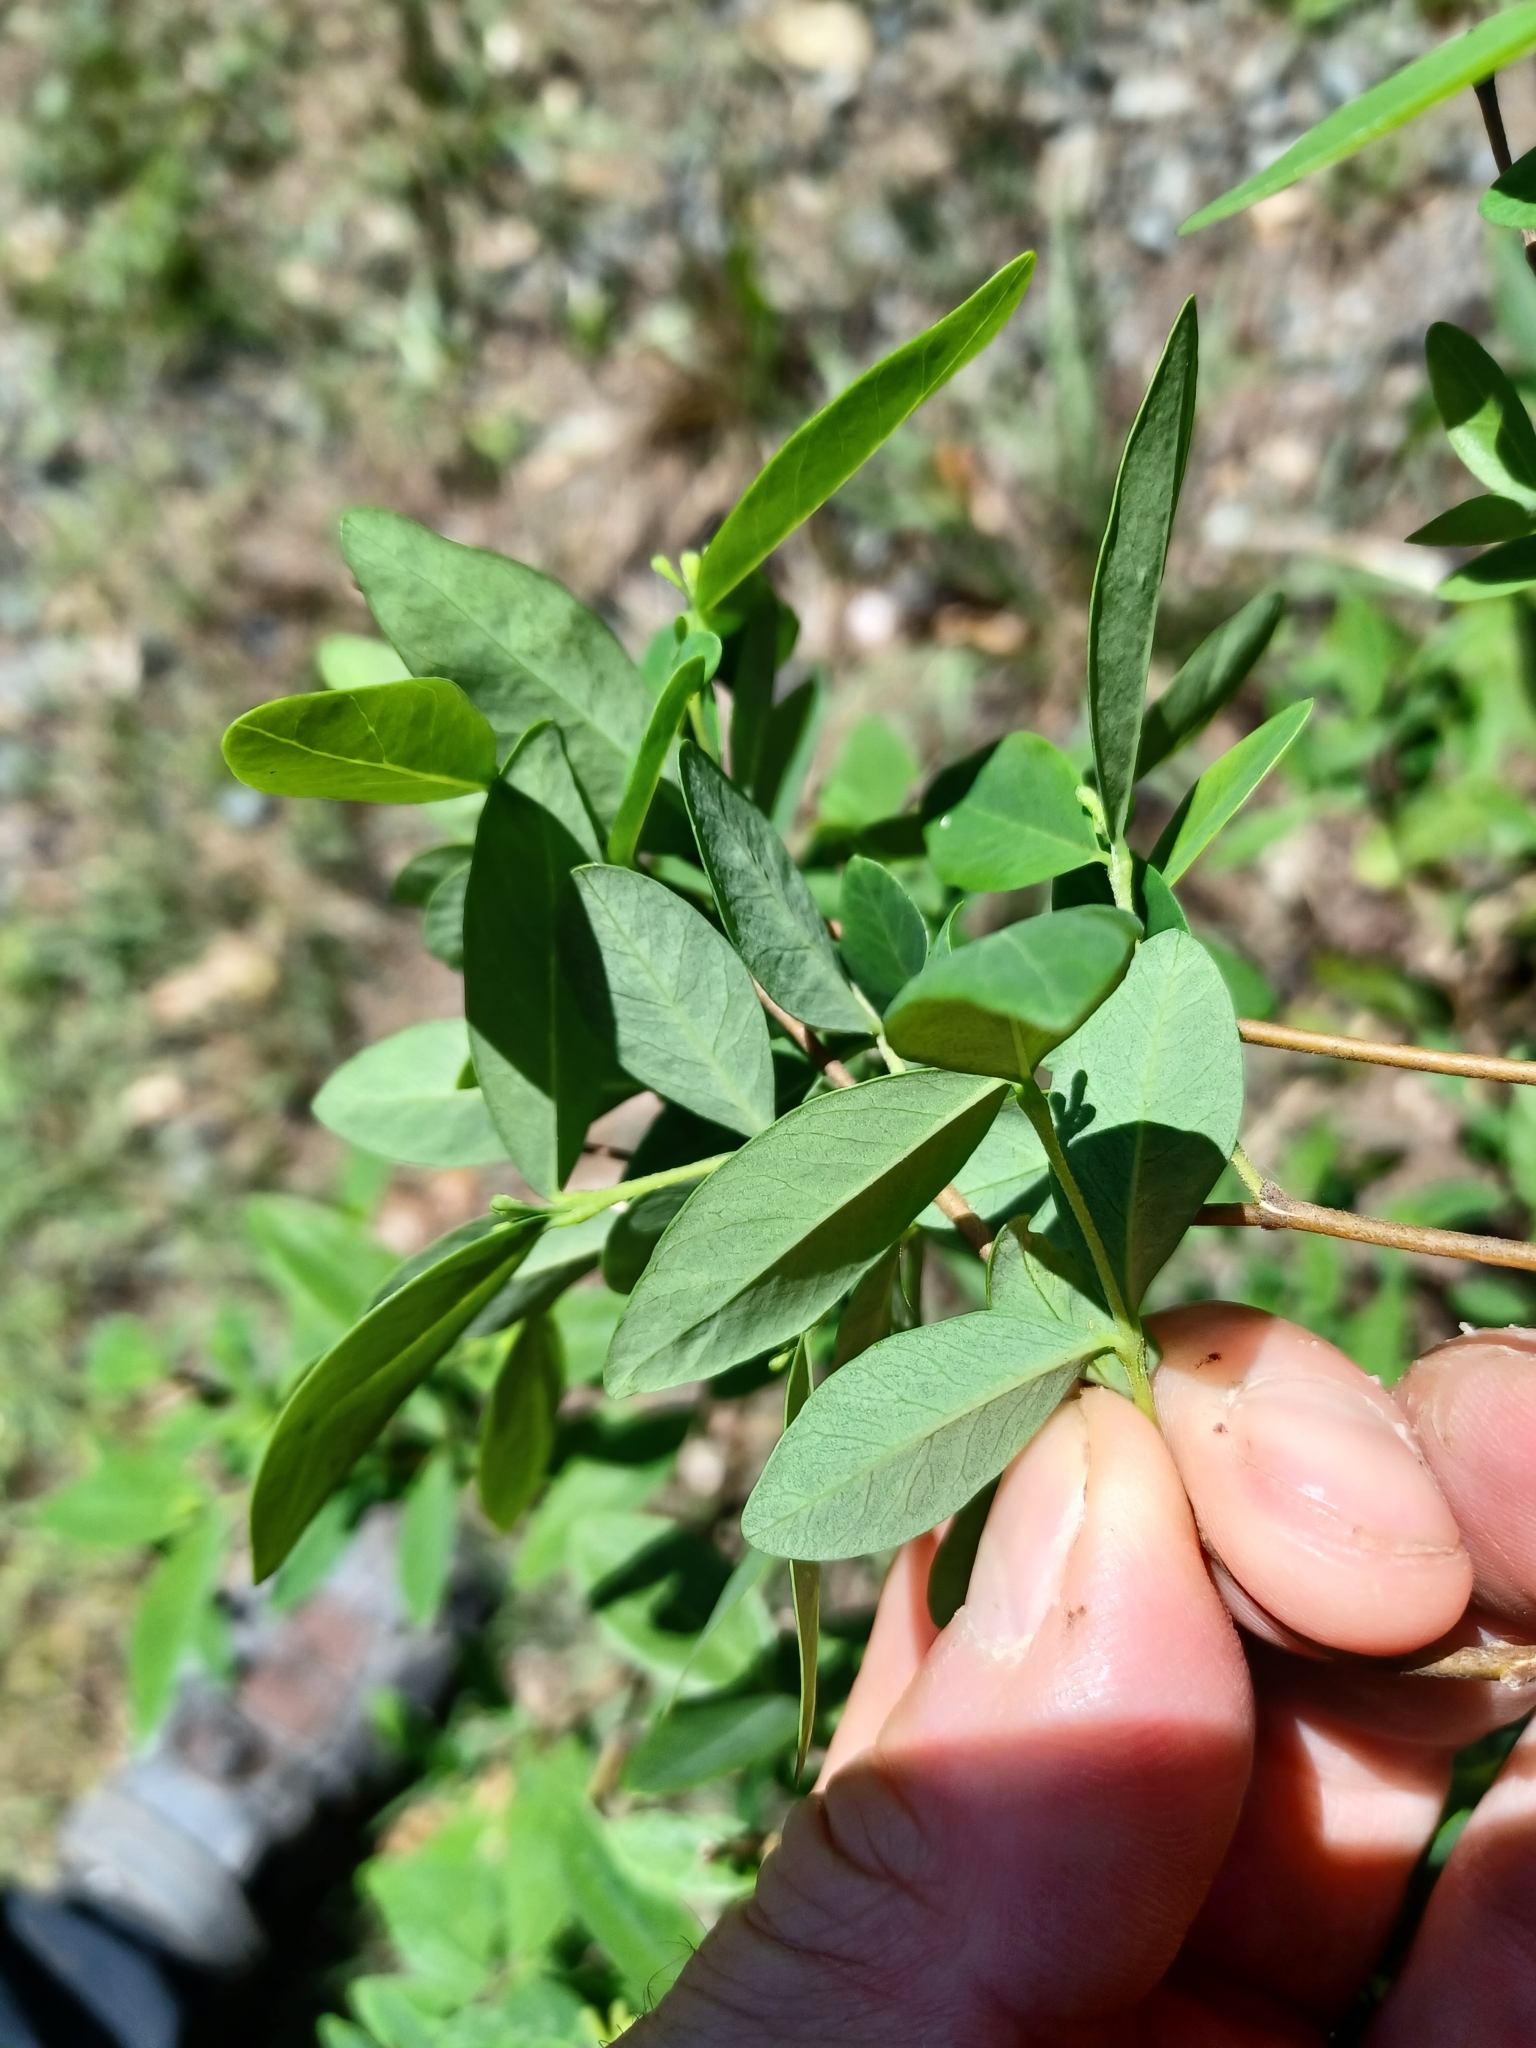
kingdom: Plantae
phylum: Tracheophyta
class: Magnoliopsida
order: Malvales
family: Thymelaeaceae
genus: Wikstroemia
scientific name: Wikstroemia indica
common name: Tiebush
